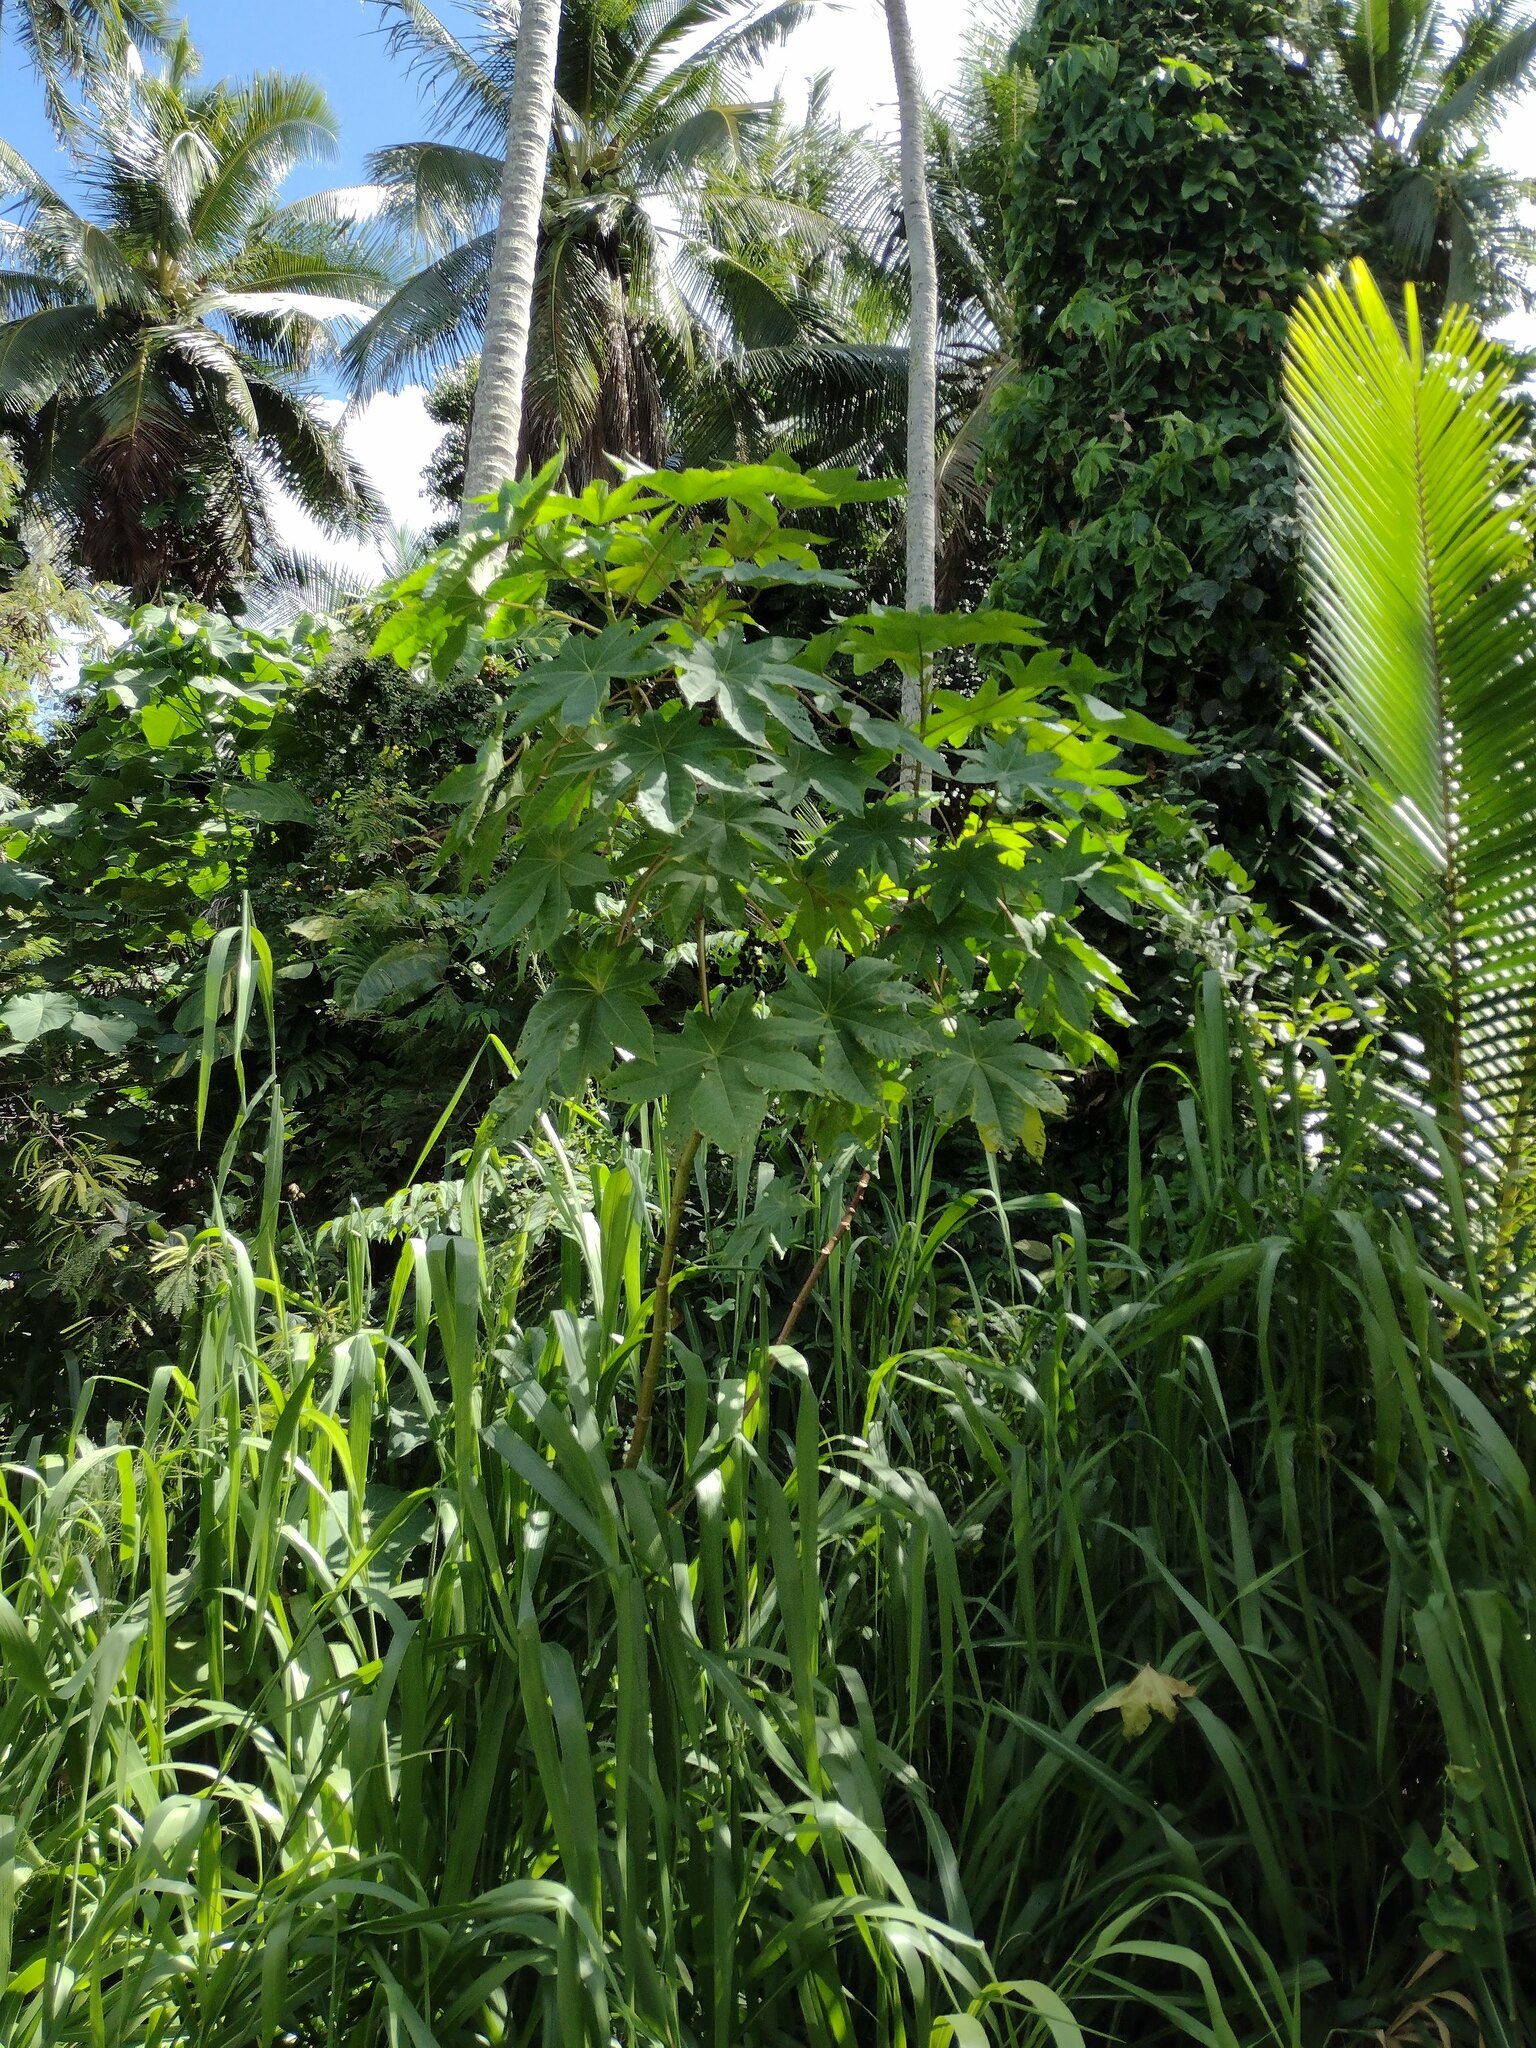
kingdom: Plantae
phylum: Tracheophyta
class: Magnoliopsida
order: Malpighiales
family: Euphorbiaceae
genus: Ricinus
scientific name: Ricinus communis
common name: Castor-oil-plant
